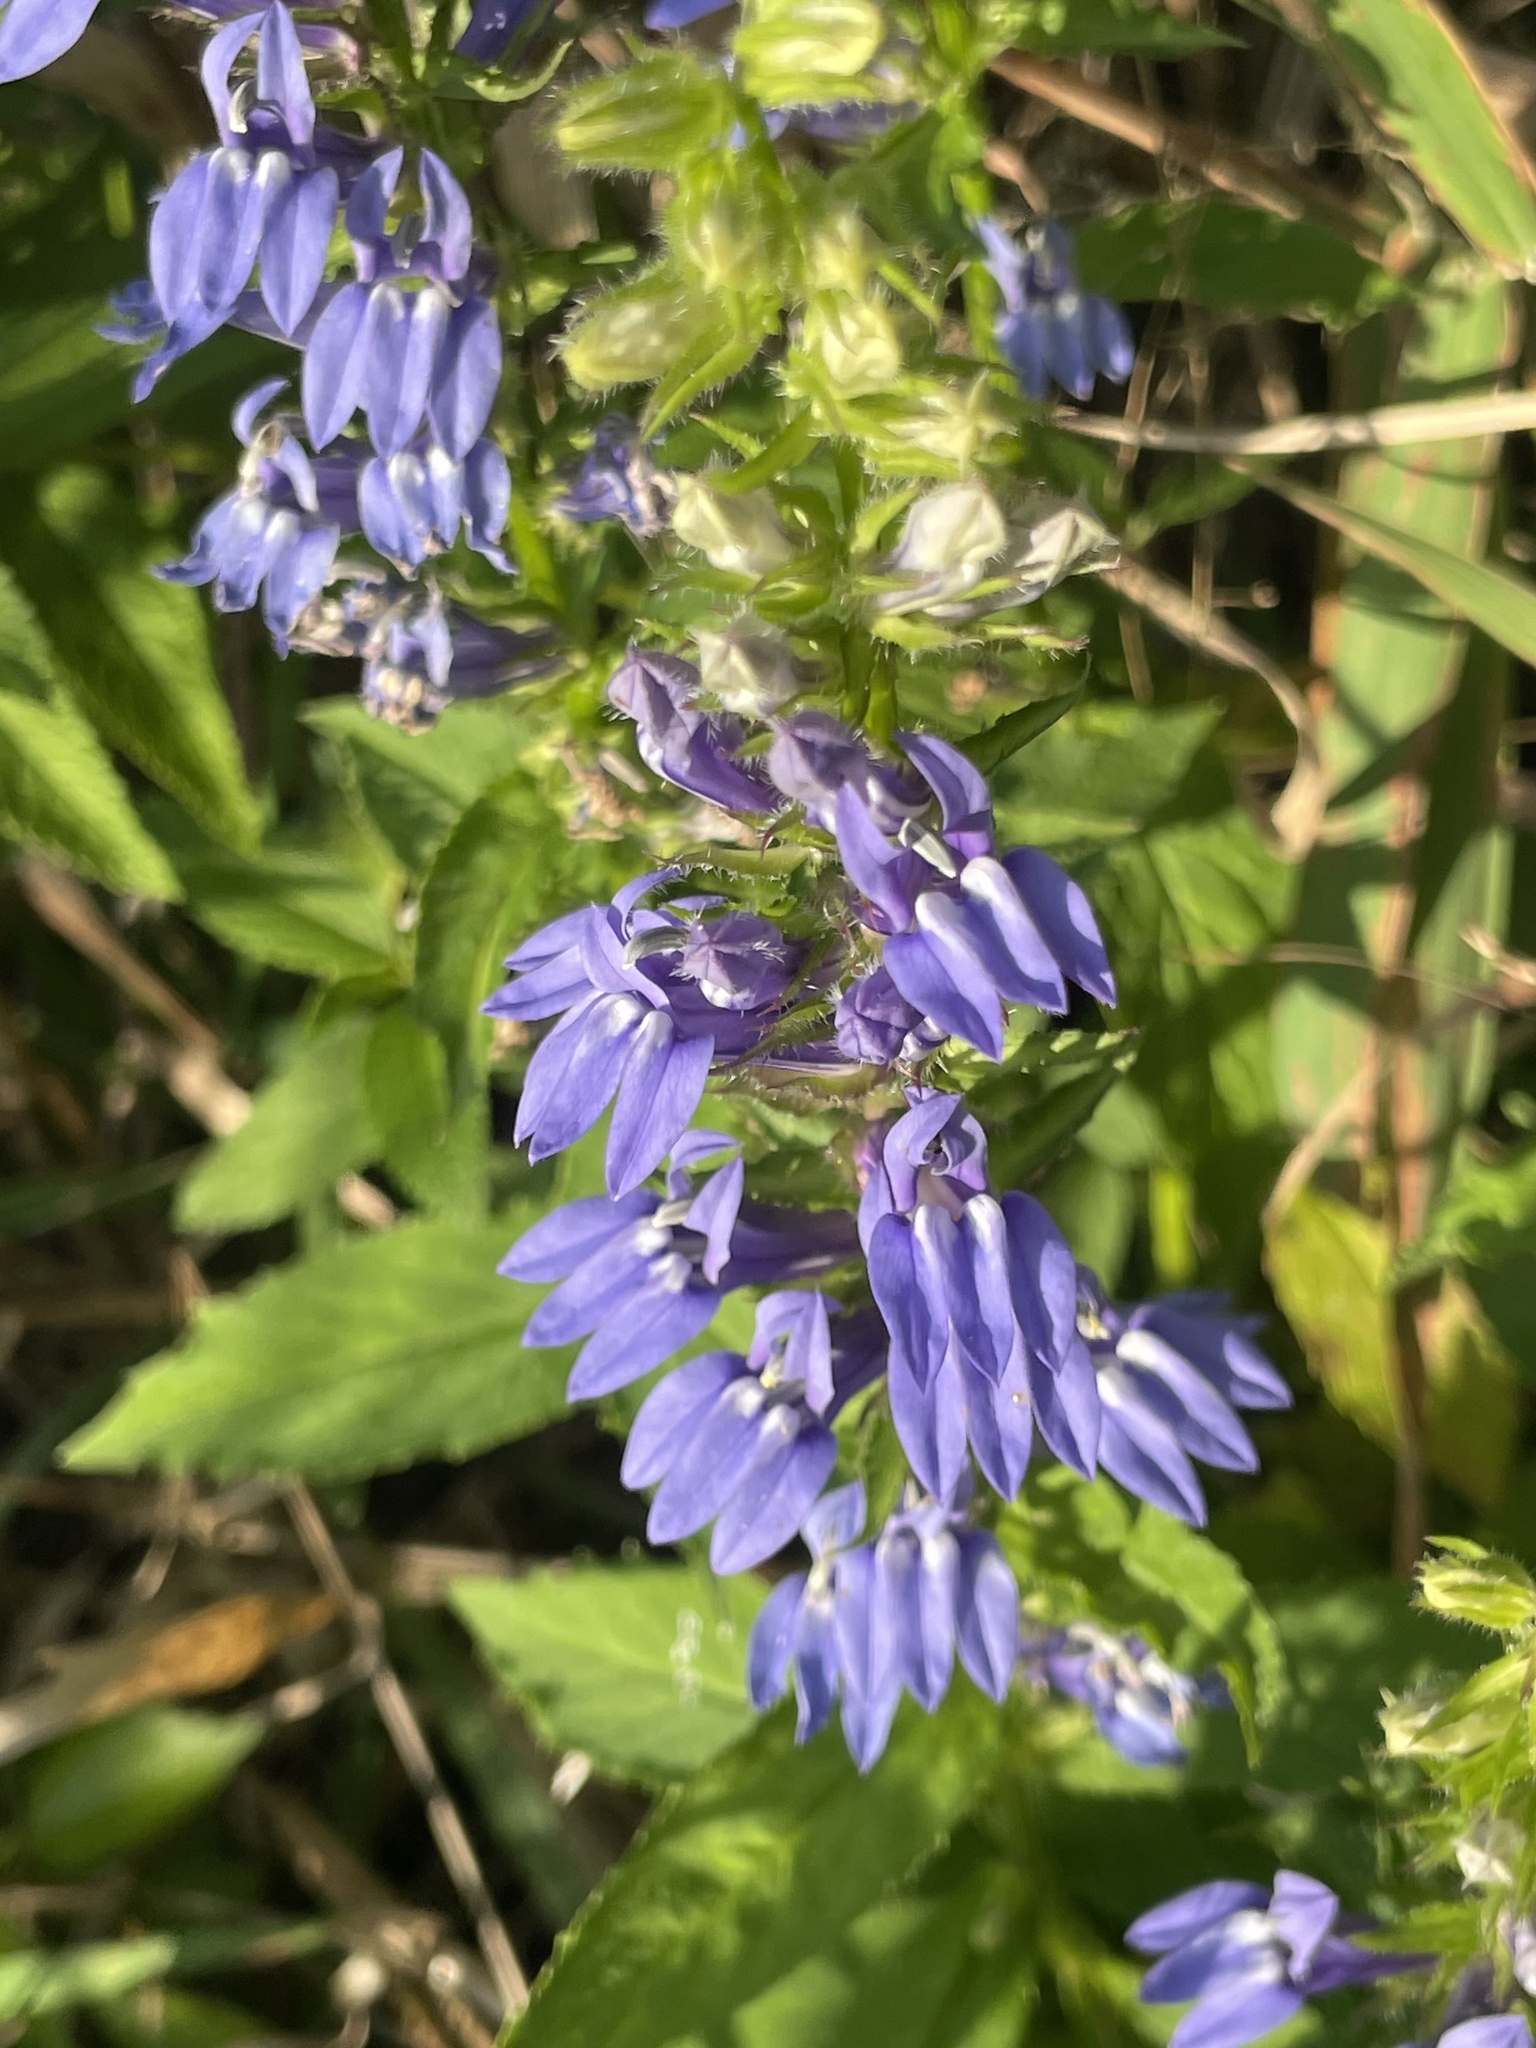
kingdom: Plantae
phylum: Tracheophyta
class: Magnoliopsida
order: Asterales
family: Campanulaceae
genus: Lobelia
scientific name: Lobelia siphilitica
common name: Great lobelia
